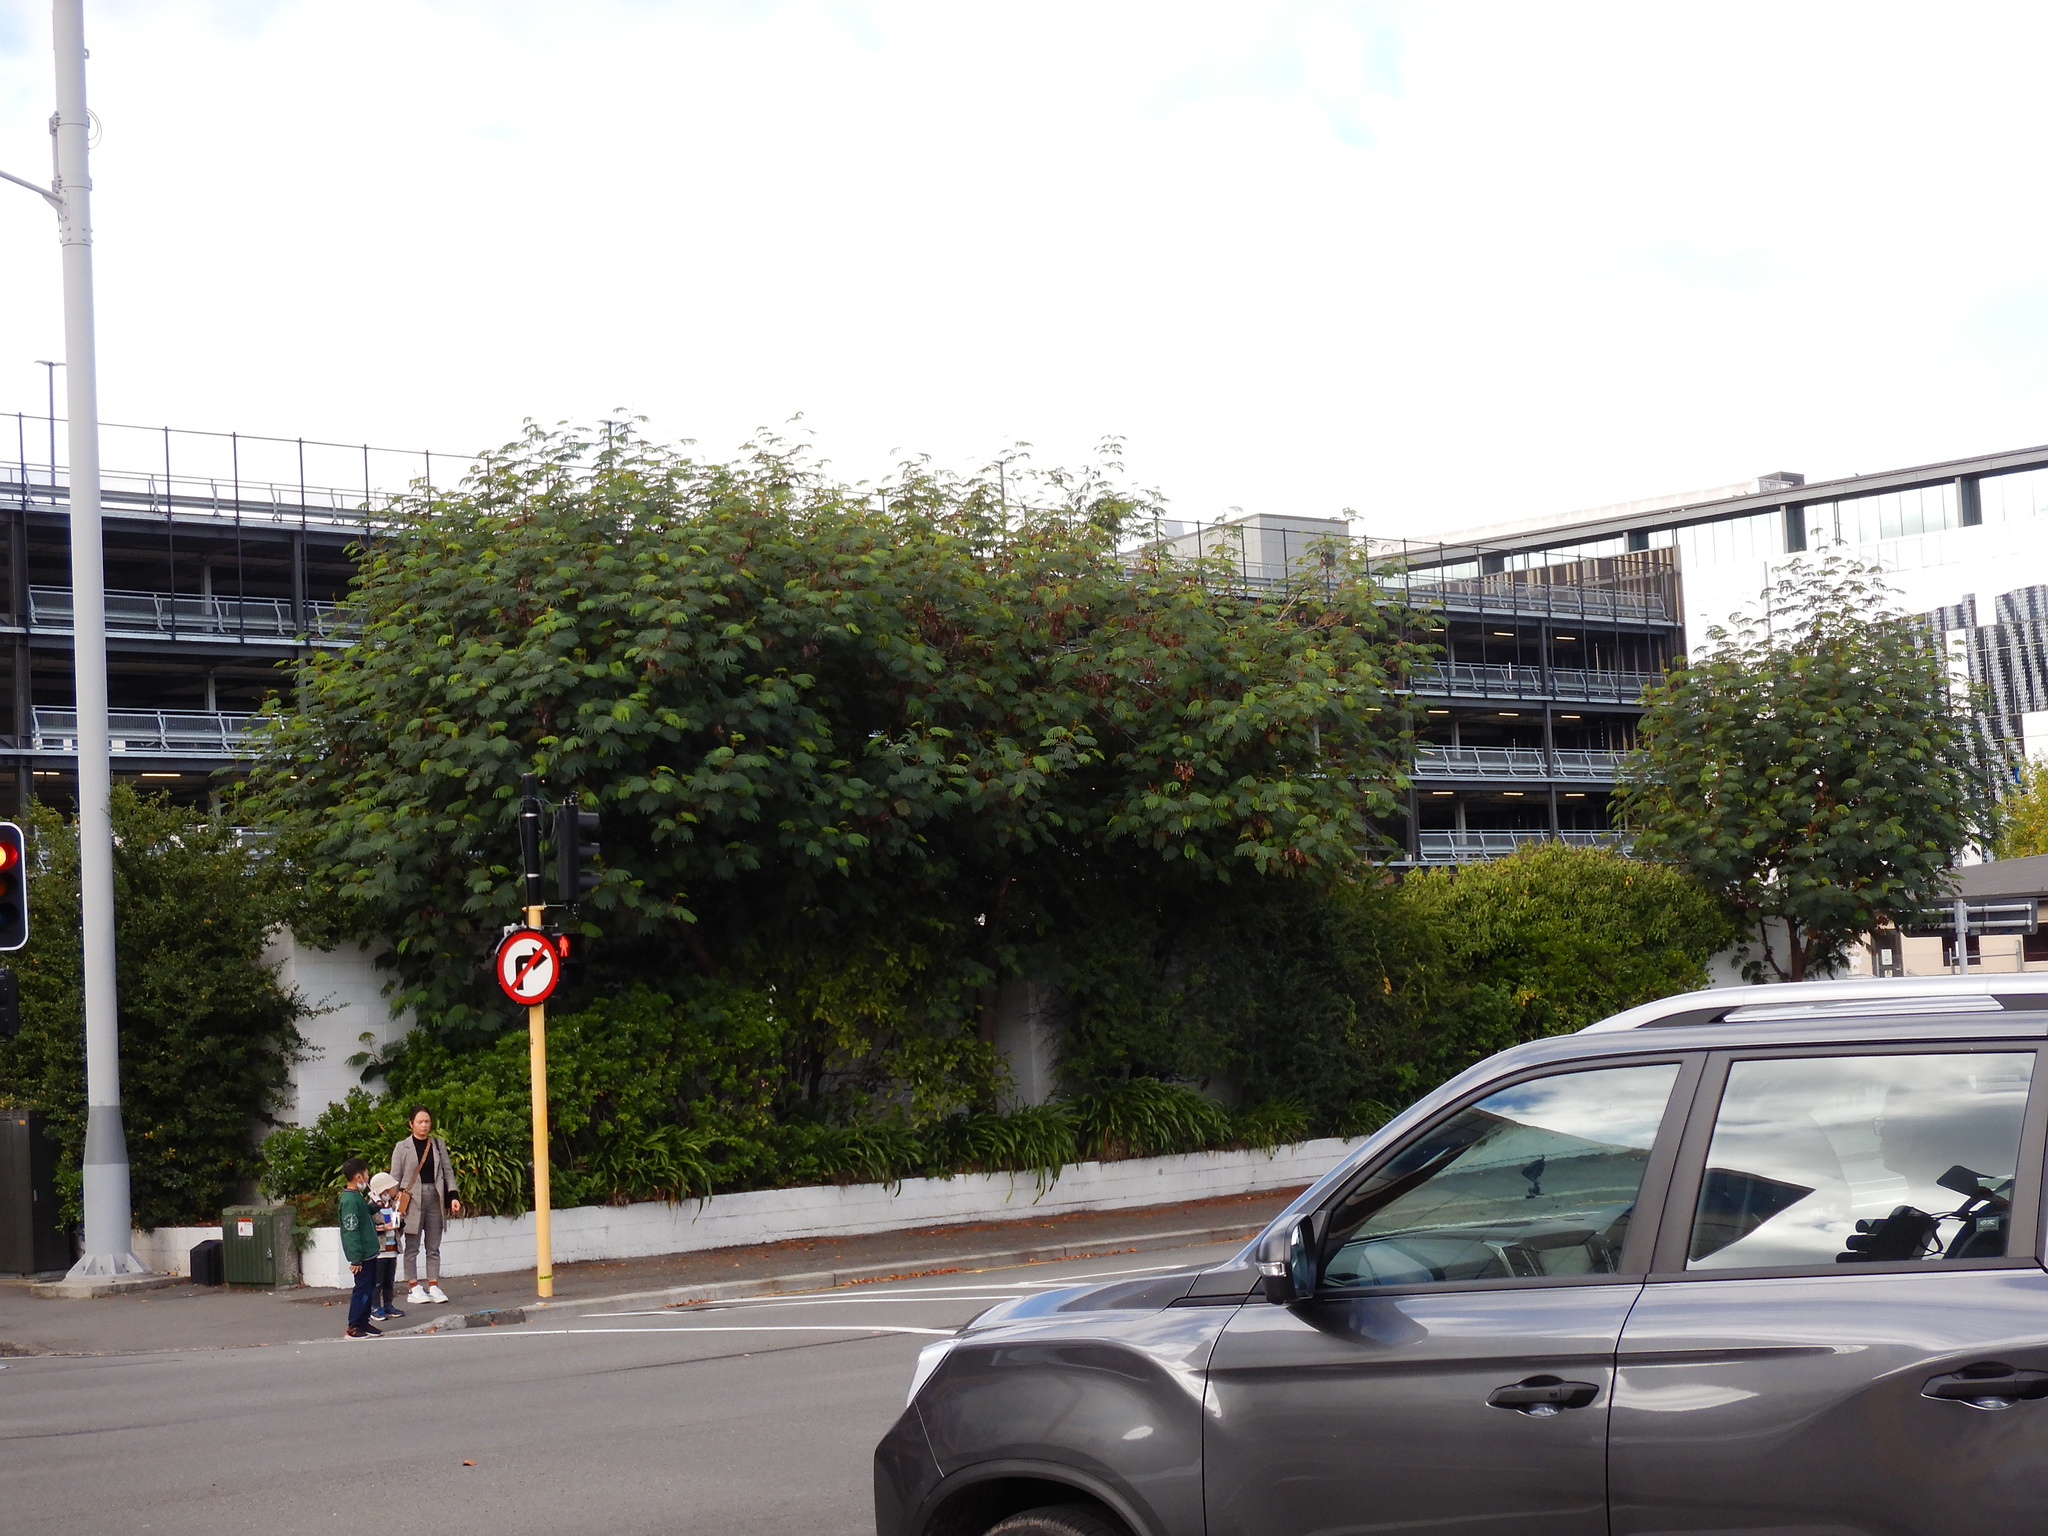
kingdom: Plantae
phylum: Tracheophyta
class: Magnoliopsida
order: Fabales
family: Fabaceae
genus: Paraserianthes
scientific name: Paraserianthes lophantha
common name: Plume albizia
